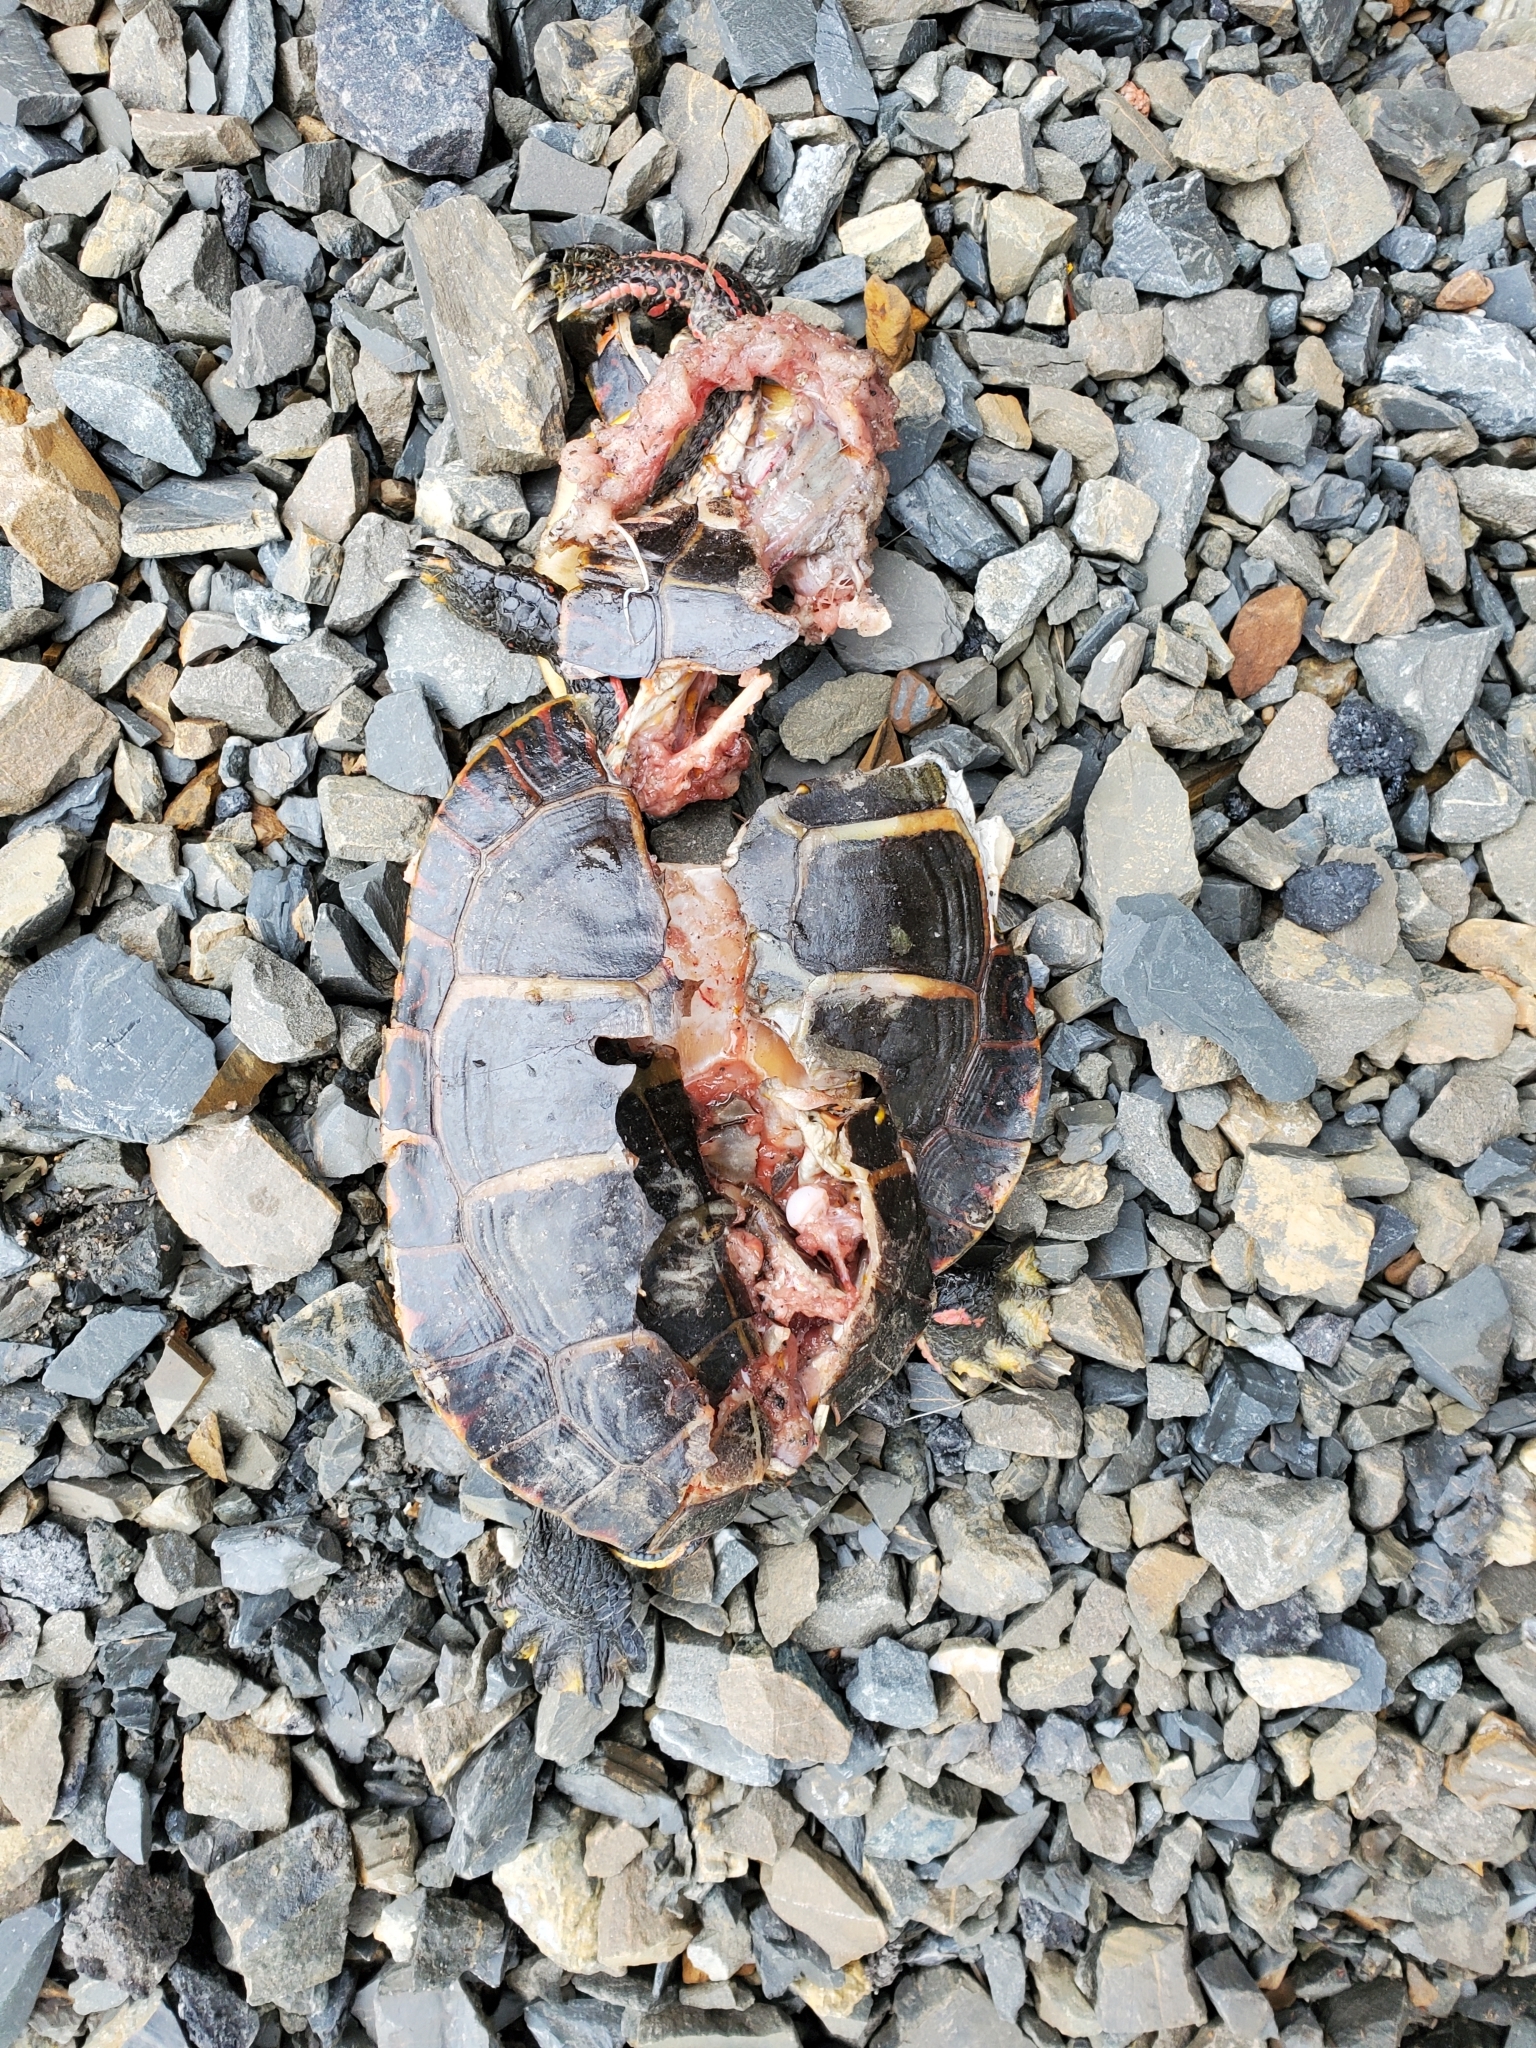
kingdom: Animalia
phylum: Chordata
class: Testudines
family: Emydidae
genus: Chrysemys
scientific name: Chrysemys picta
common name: Painted turtle
